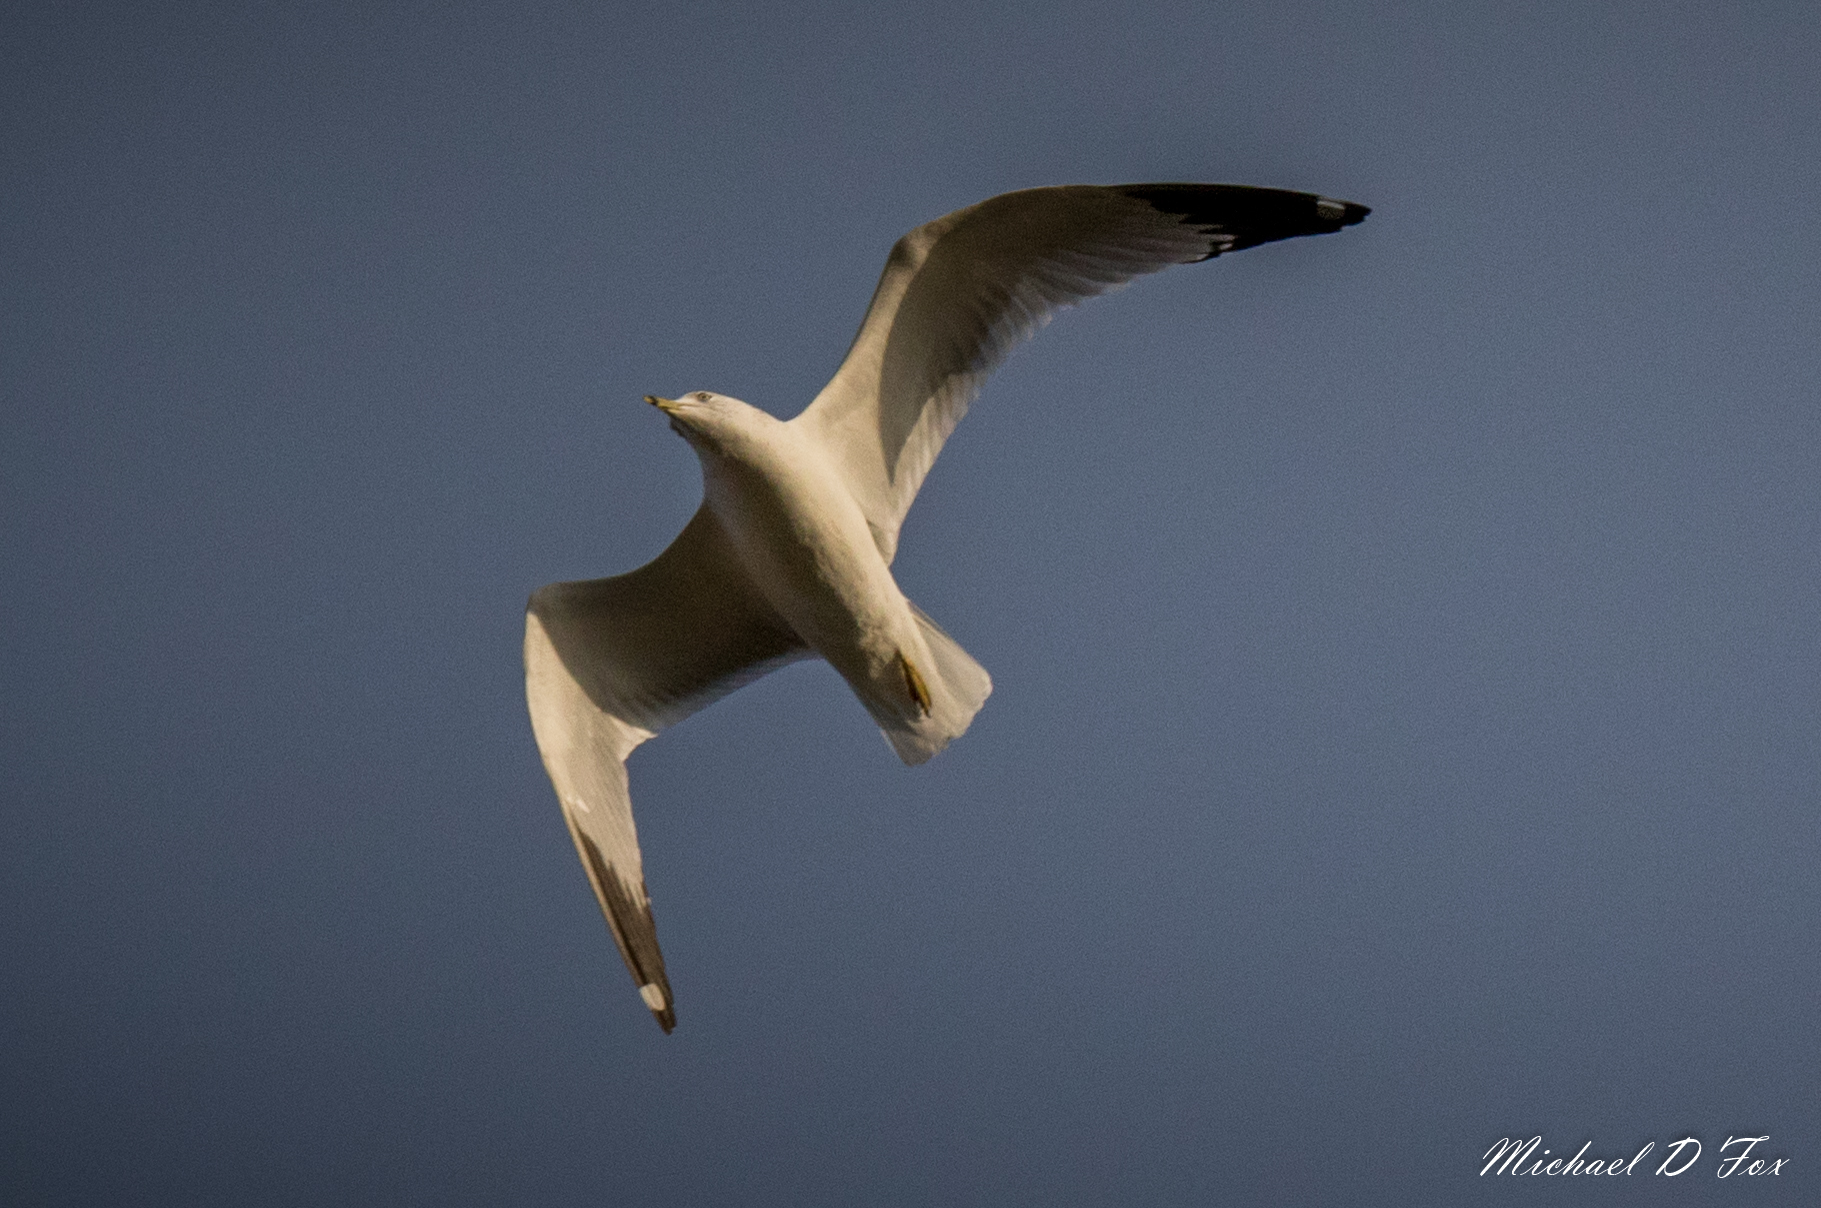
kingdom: Animalia
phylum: Chordata
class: Aves
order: Charadriiformes
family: Laridae
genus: Larus
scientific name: Larus delawarensis
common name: Ring-billed gull
